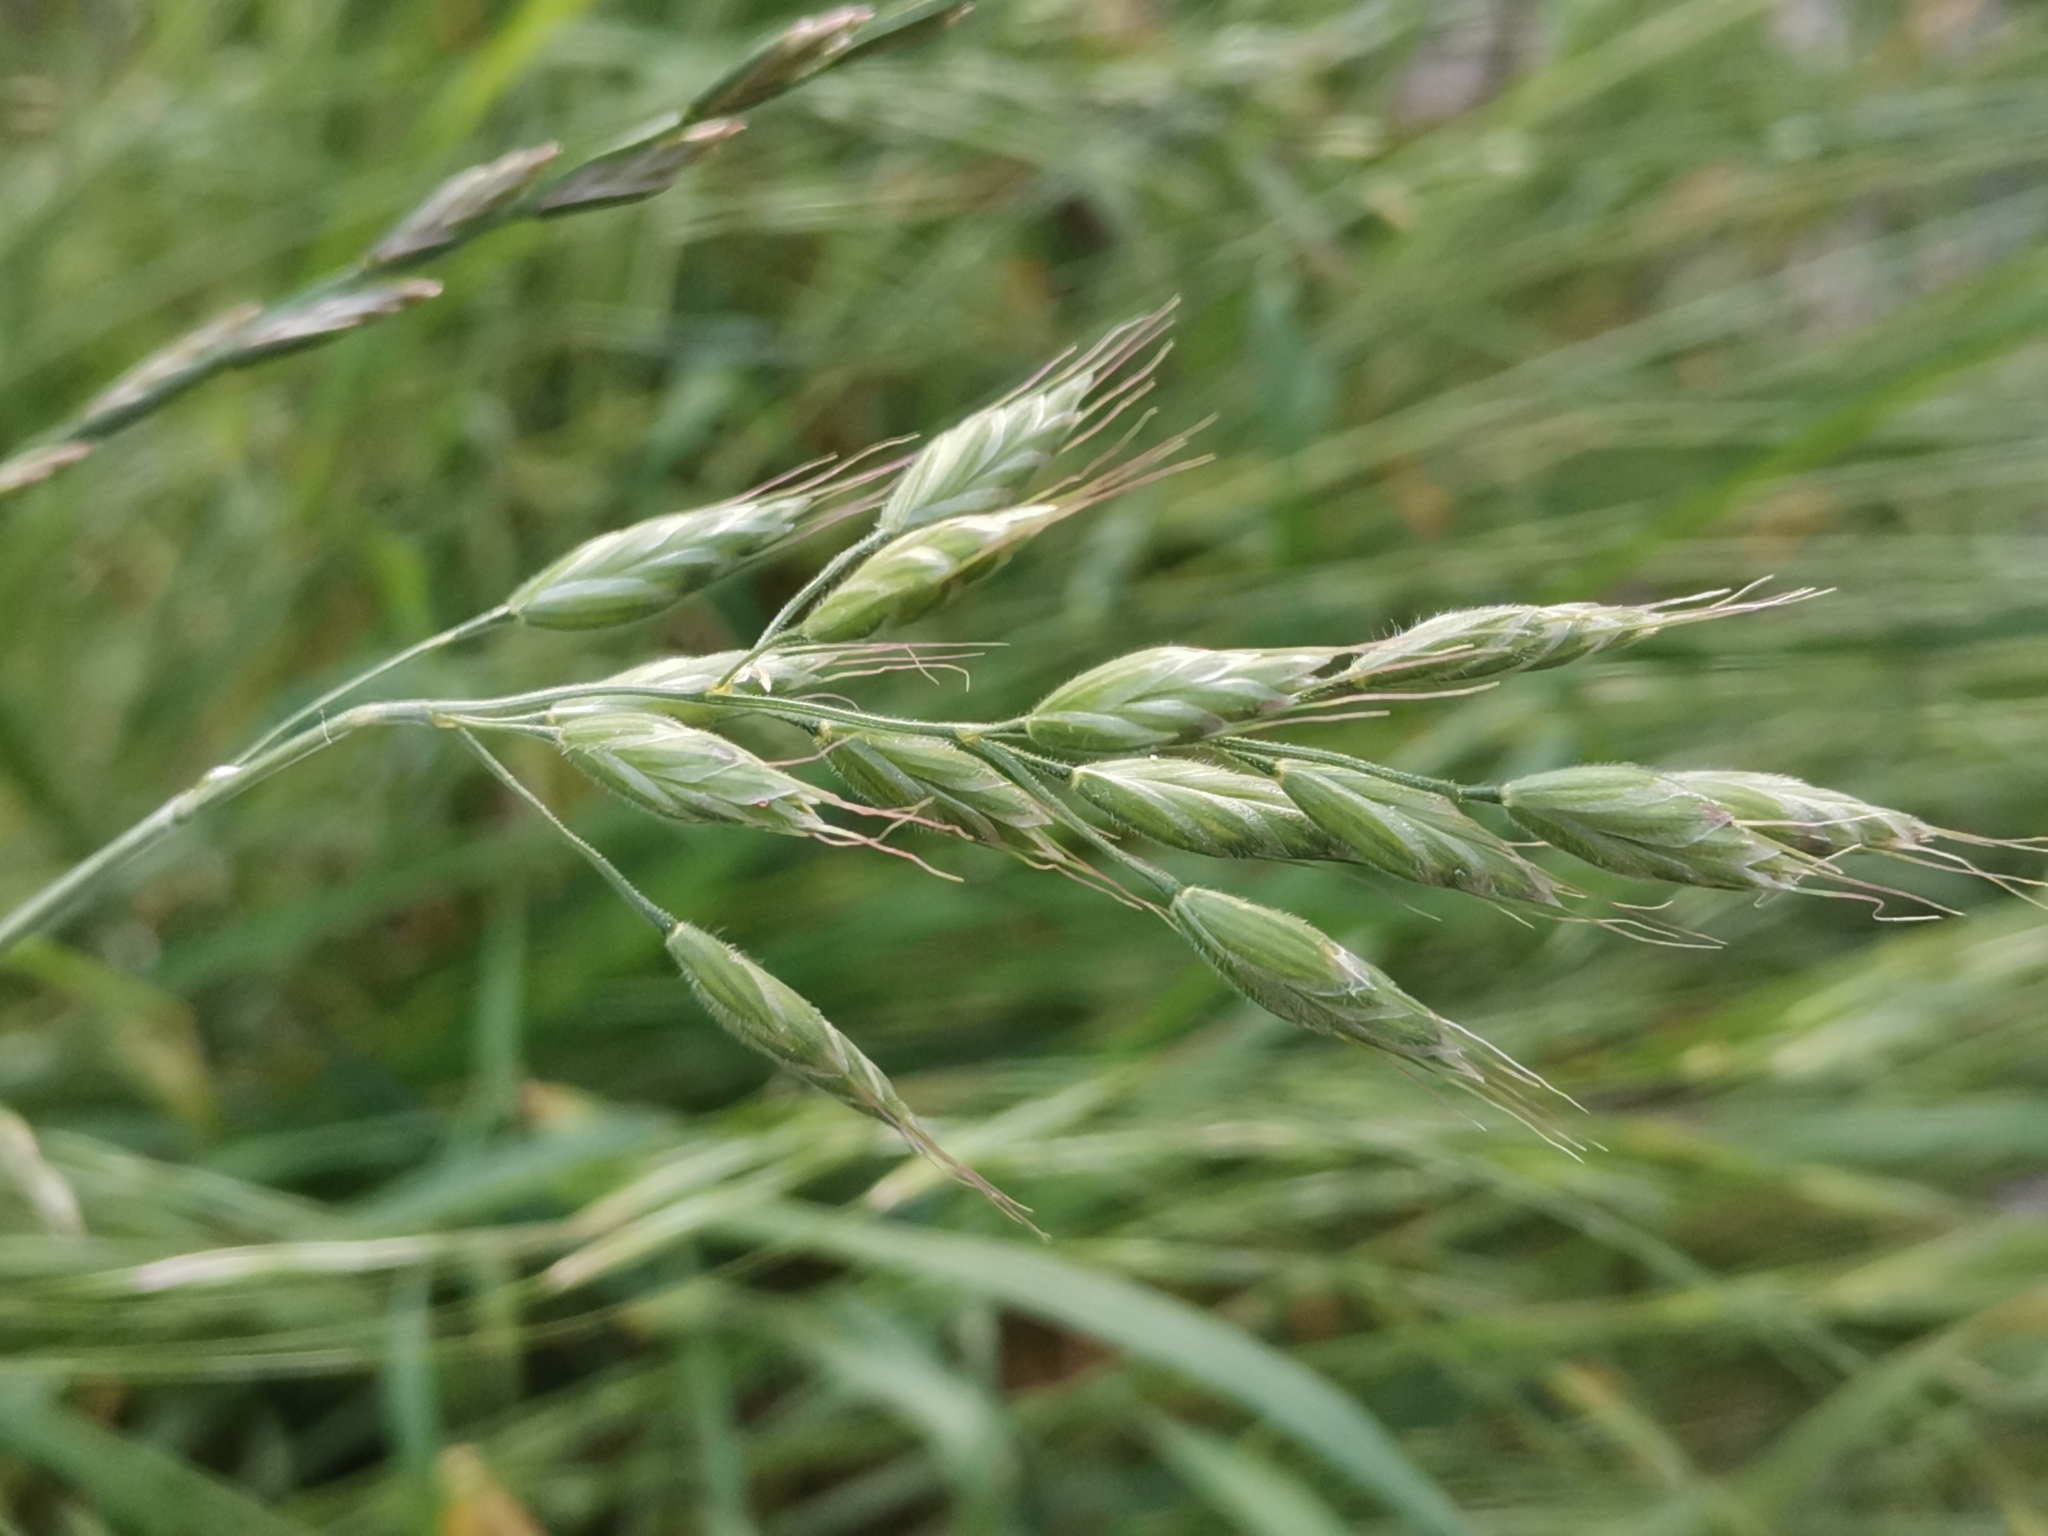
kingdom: Plantae
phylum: Tracheophyta
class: Liliopsida
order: Poales
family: Poaceae
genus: Bromus
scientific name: Bromus hordeaceus
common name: Soft brome
